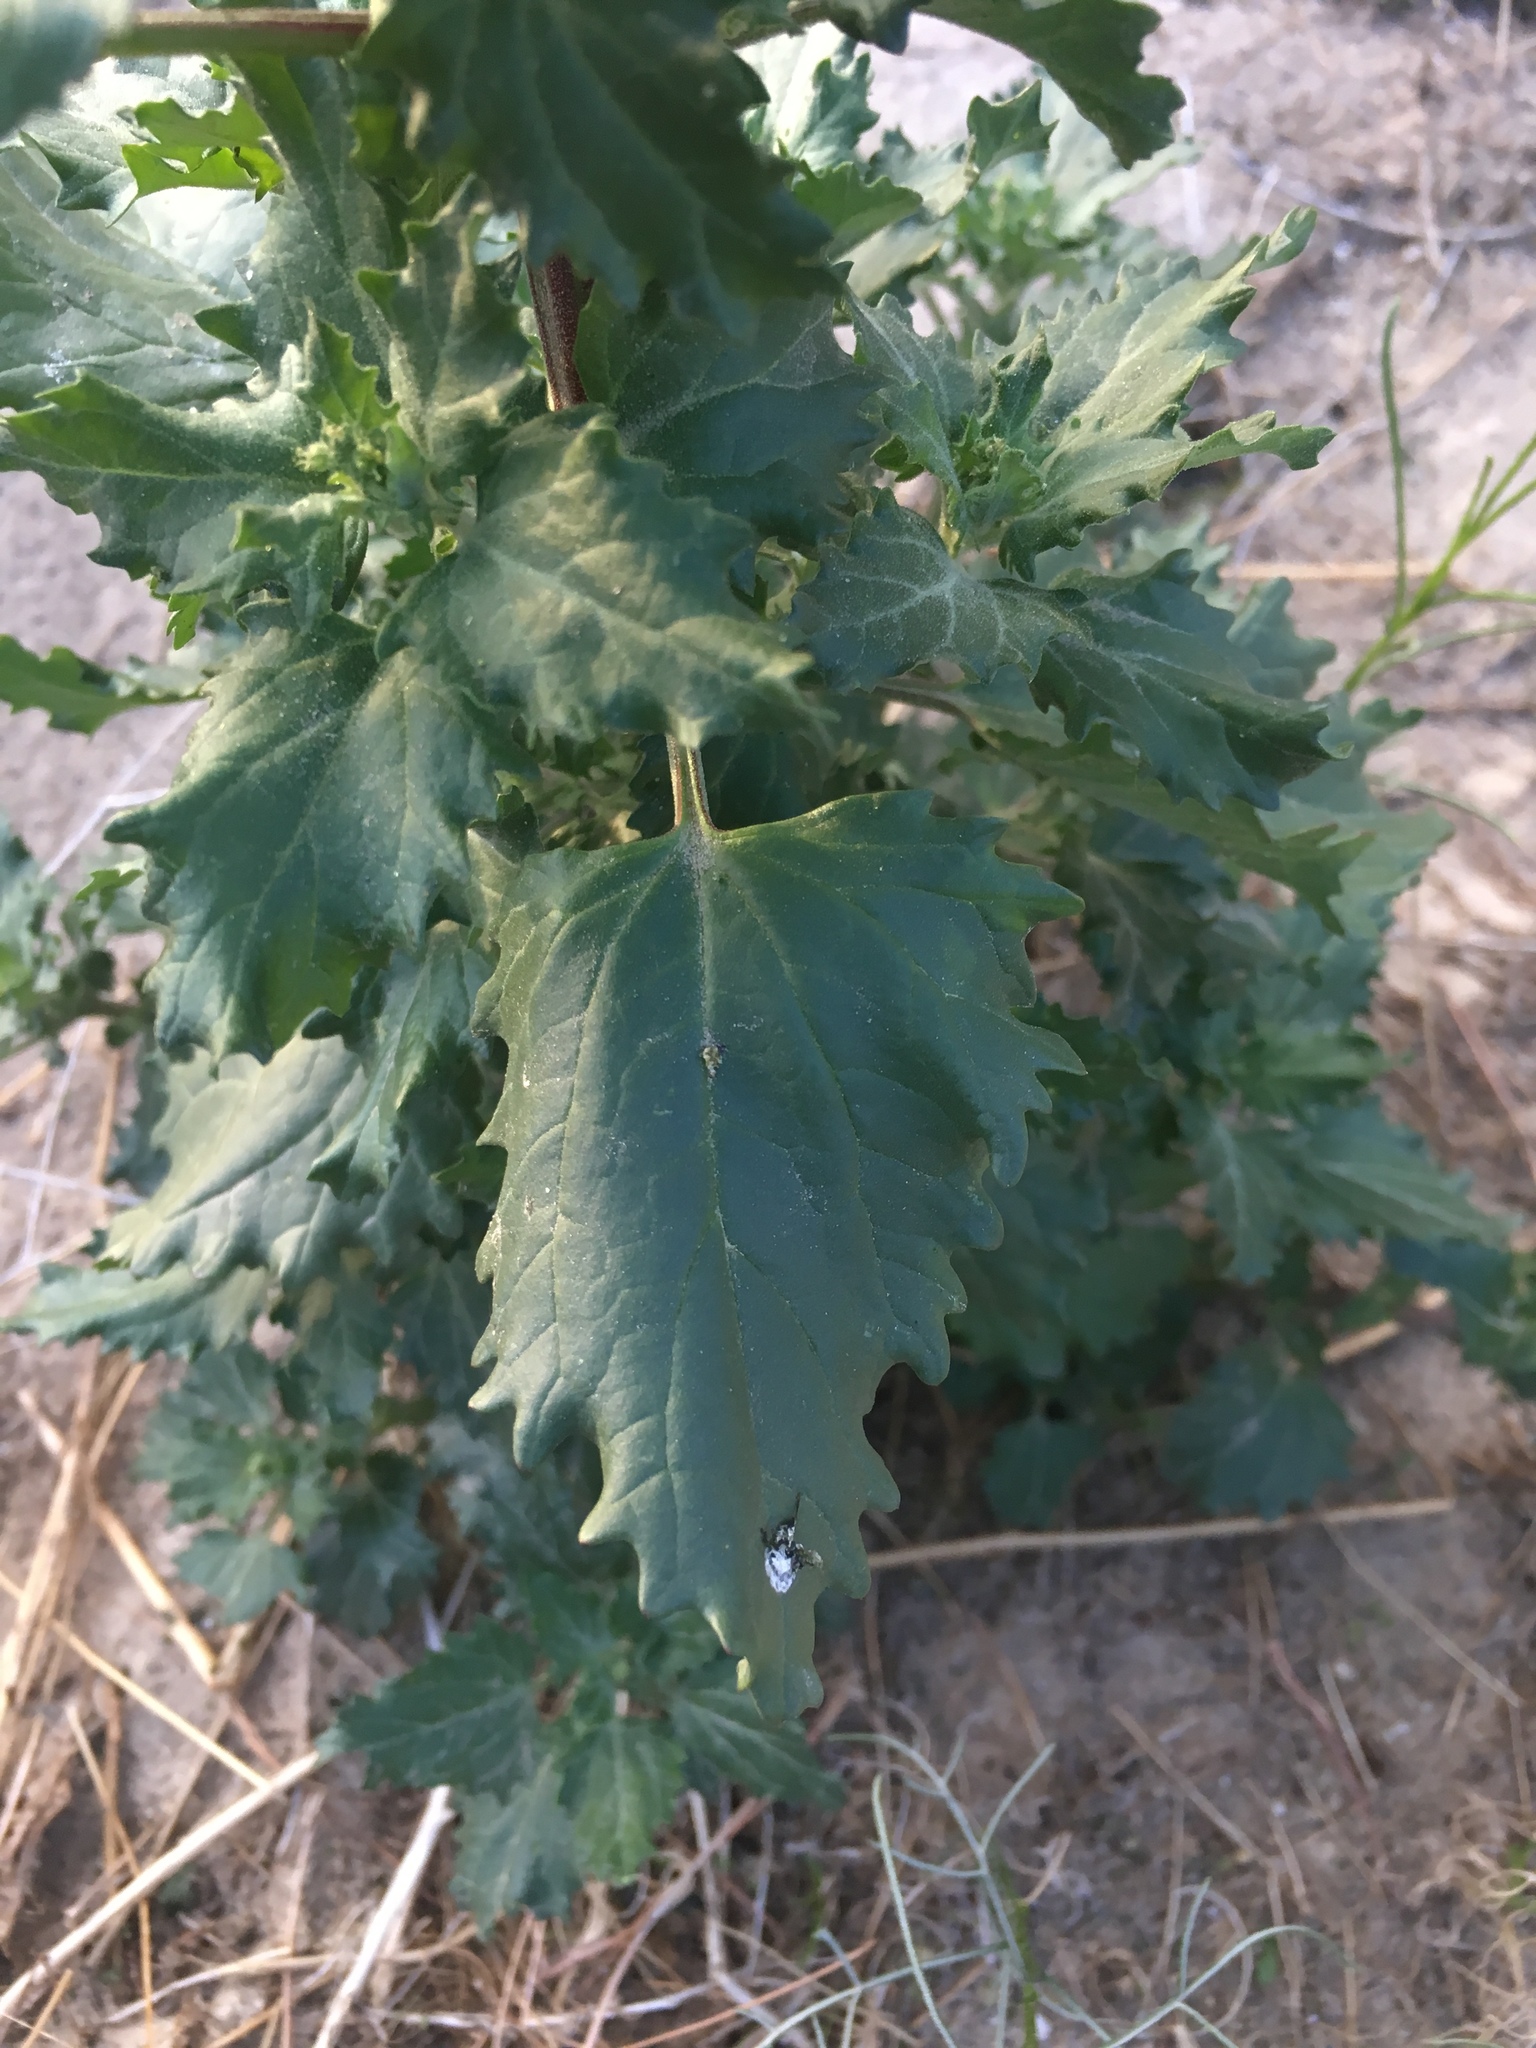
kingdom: Plantae
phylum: Tracheophyta
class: Magnoliopsida
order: Caryophyllales
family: Amaranthaceae
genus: Chenopodiastrum
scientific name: Chenopodiastrum murale
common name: Sowbane
